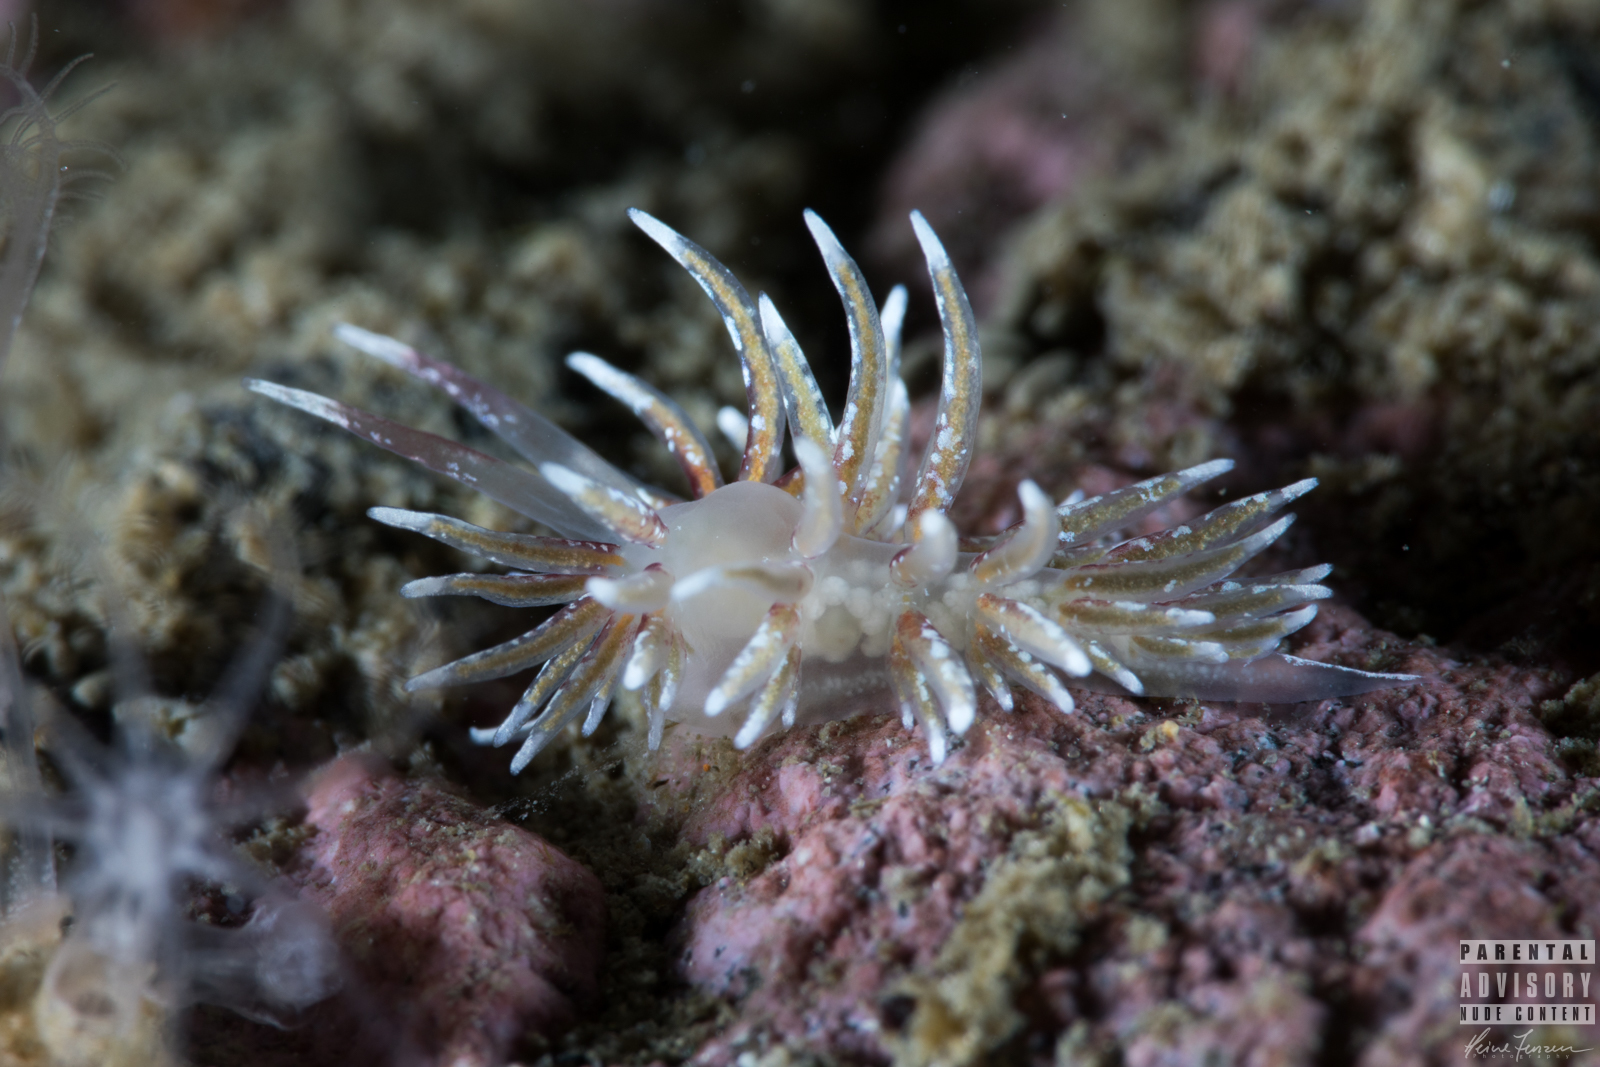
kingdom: Animalia
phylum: Mollusca
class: Gastropoda
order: Nudibranchia
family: Trinchesiidae
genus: Rubramoena
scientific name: Rubramoena rubescens
